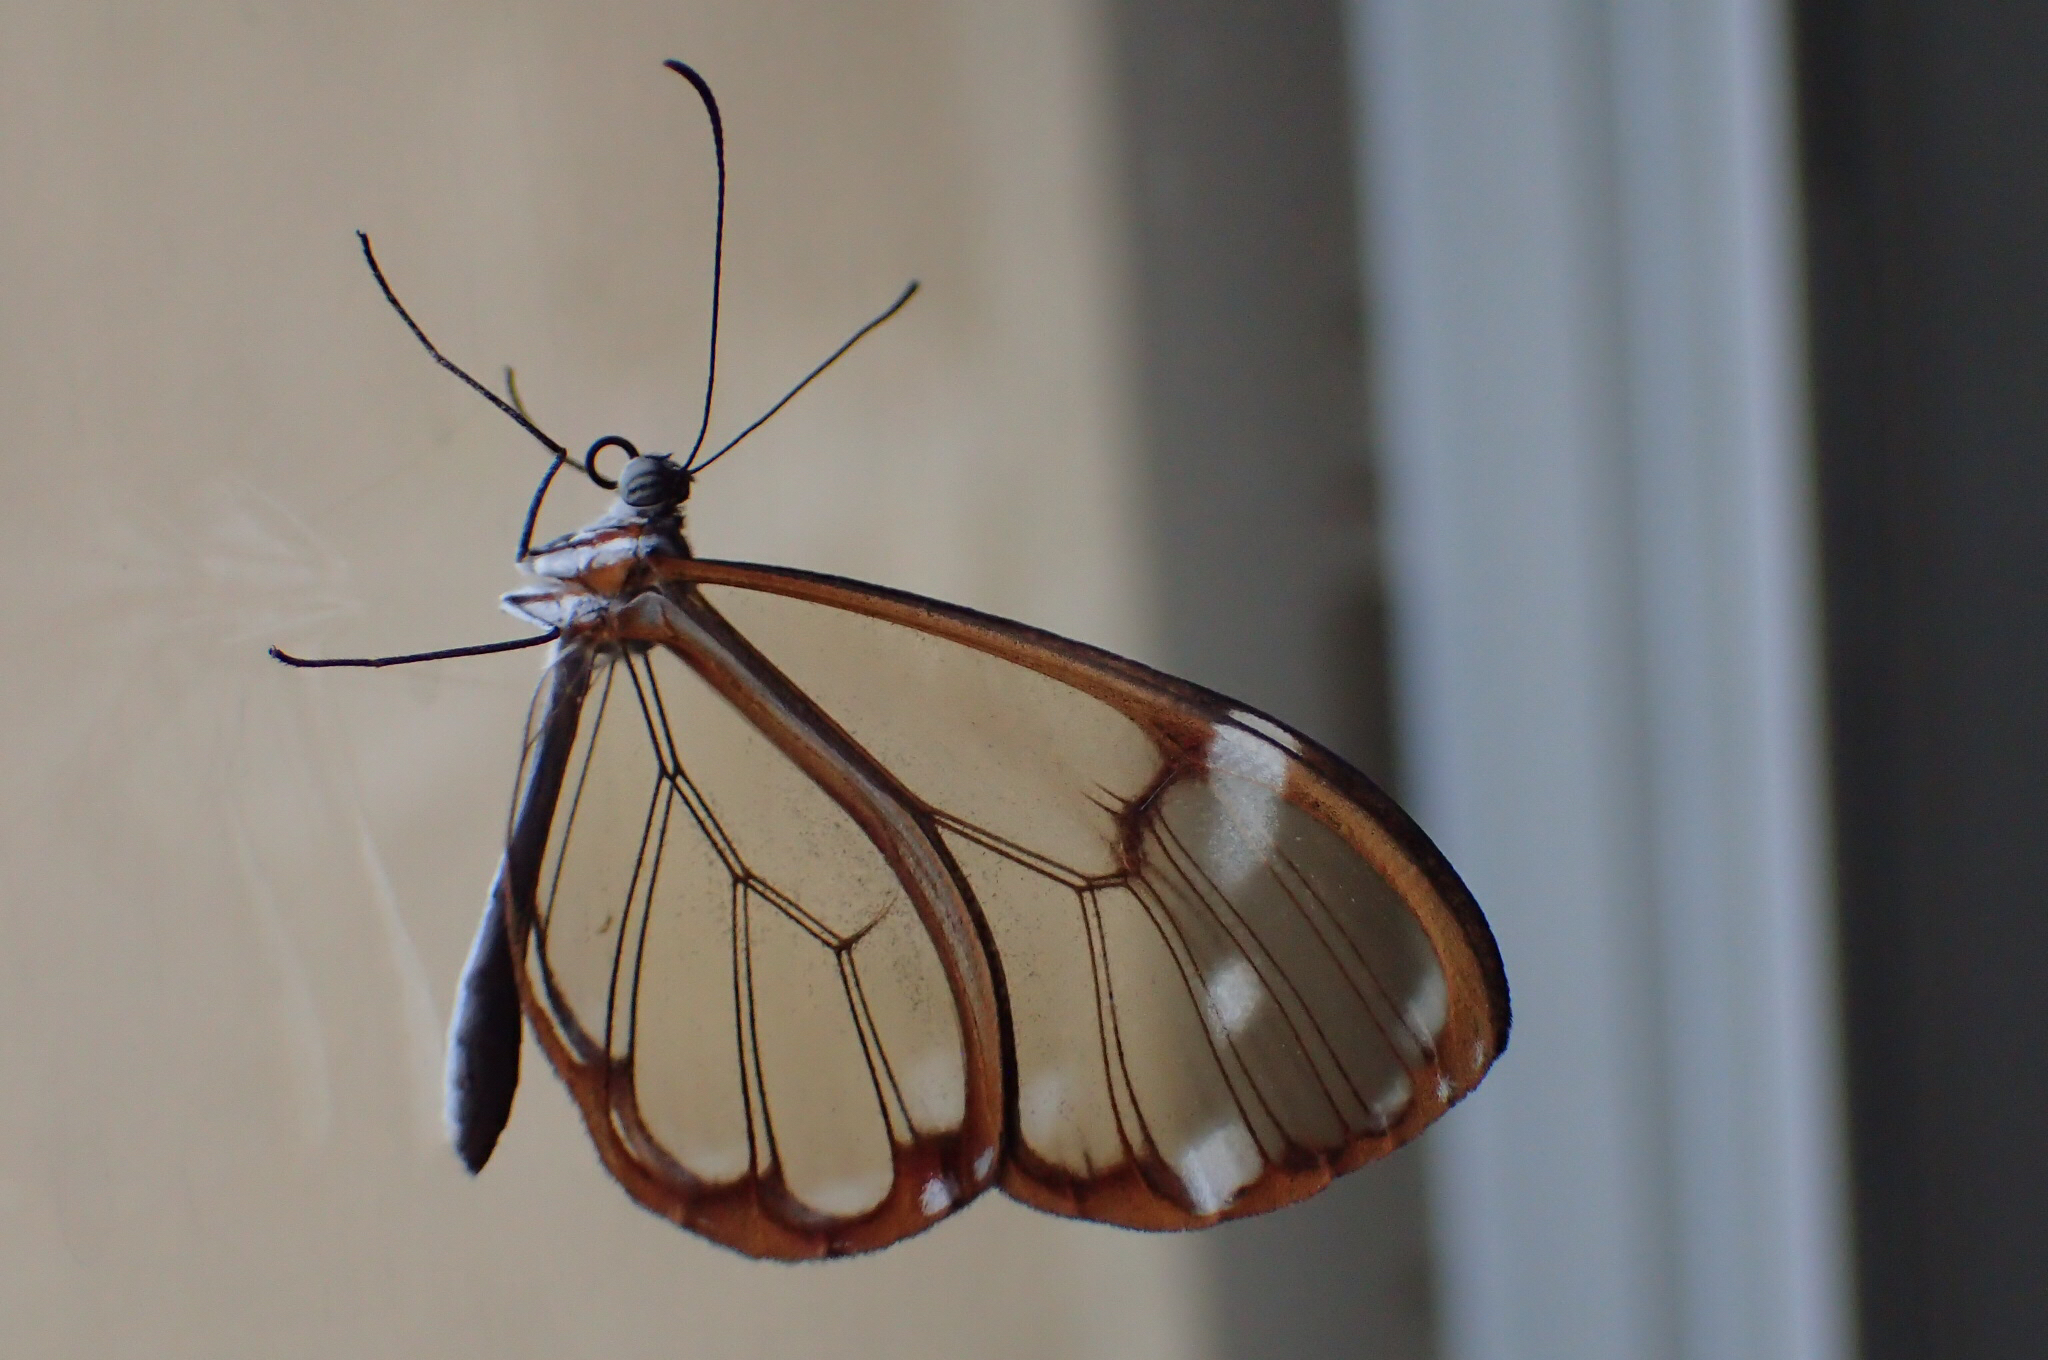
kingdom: Animalia
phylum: Arthropoda
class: Insecta
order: Lepidoptera
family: Nymphalidae
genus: Greta
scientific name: Greta annette
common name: White-spotted clearwing
